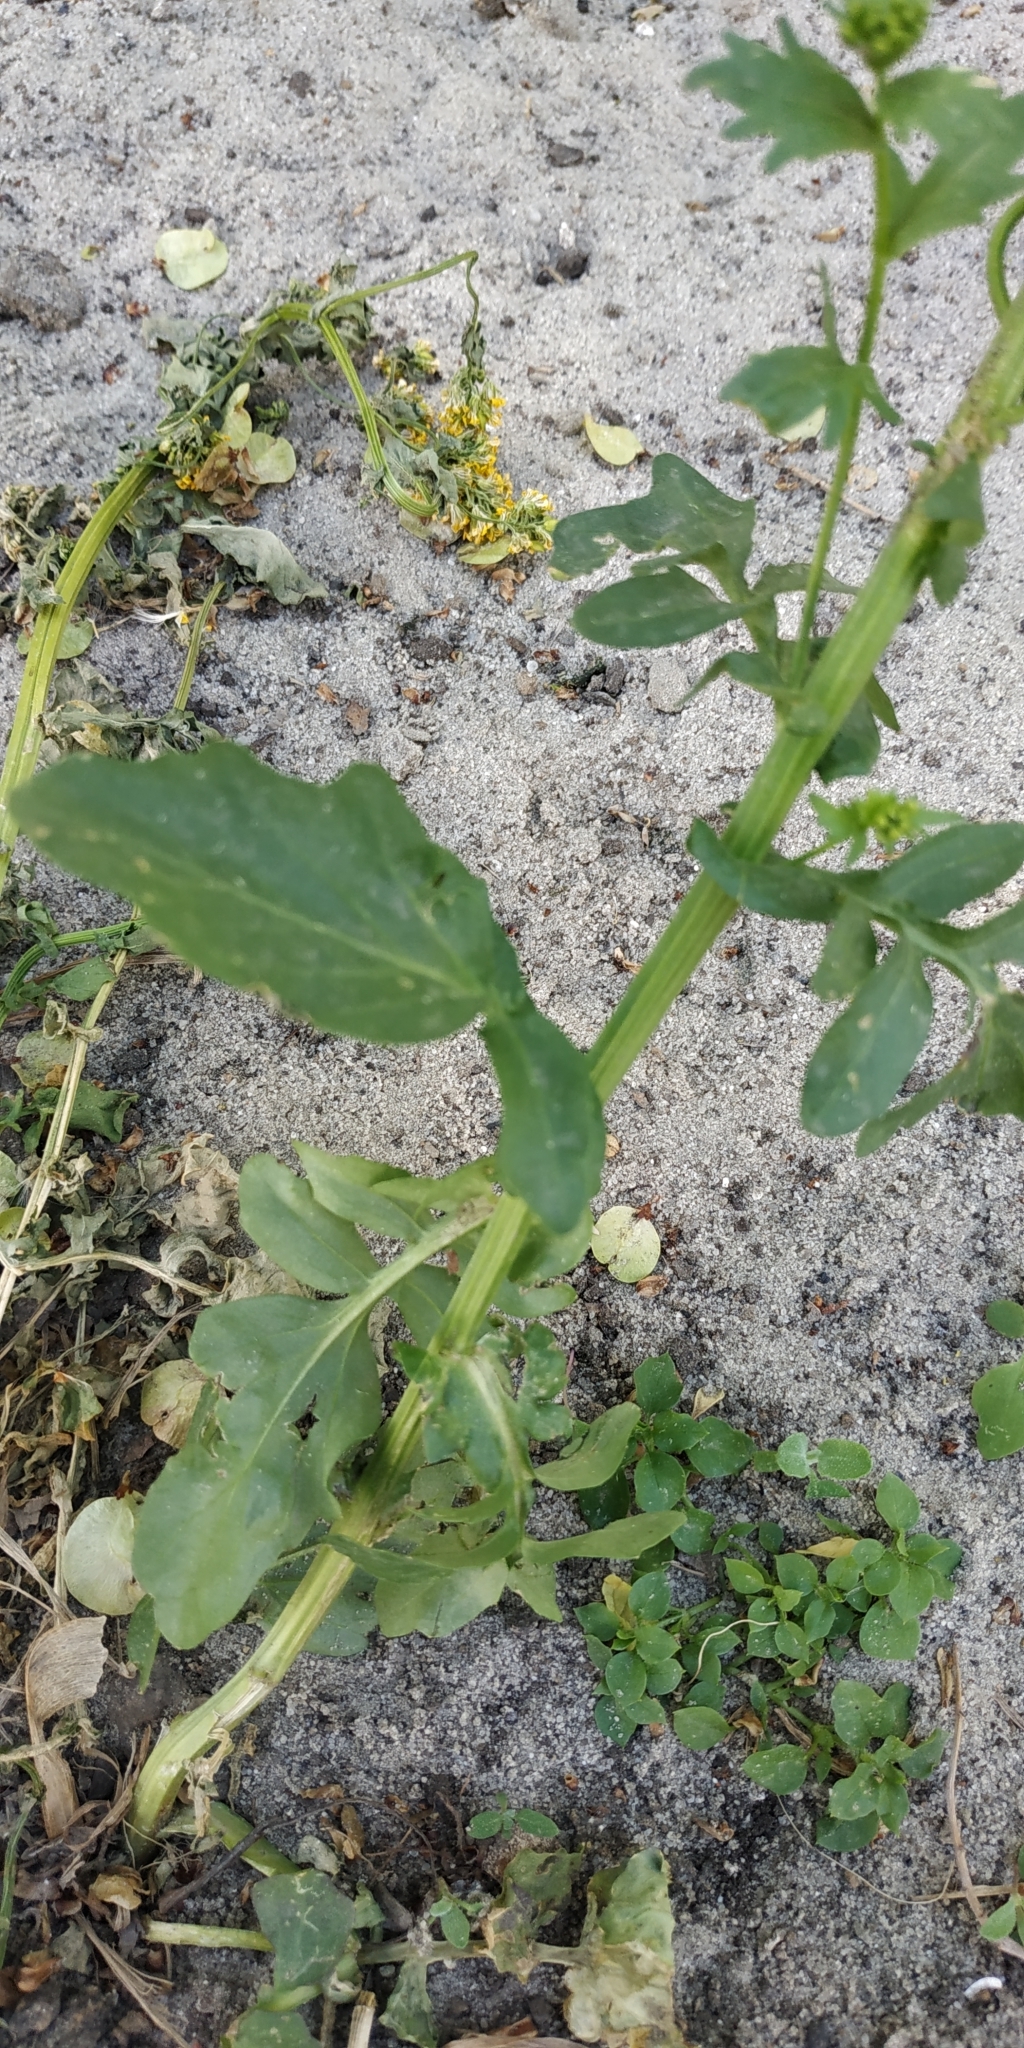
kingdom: Plantae
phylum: Tracheophyta
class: Magnoliopsida
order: Brassicales
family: Brassicaceae
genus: Barbarea
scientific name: Barbarea vulgaris
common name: Cressy-greens
